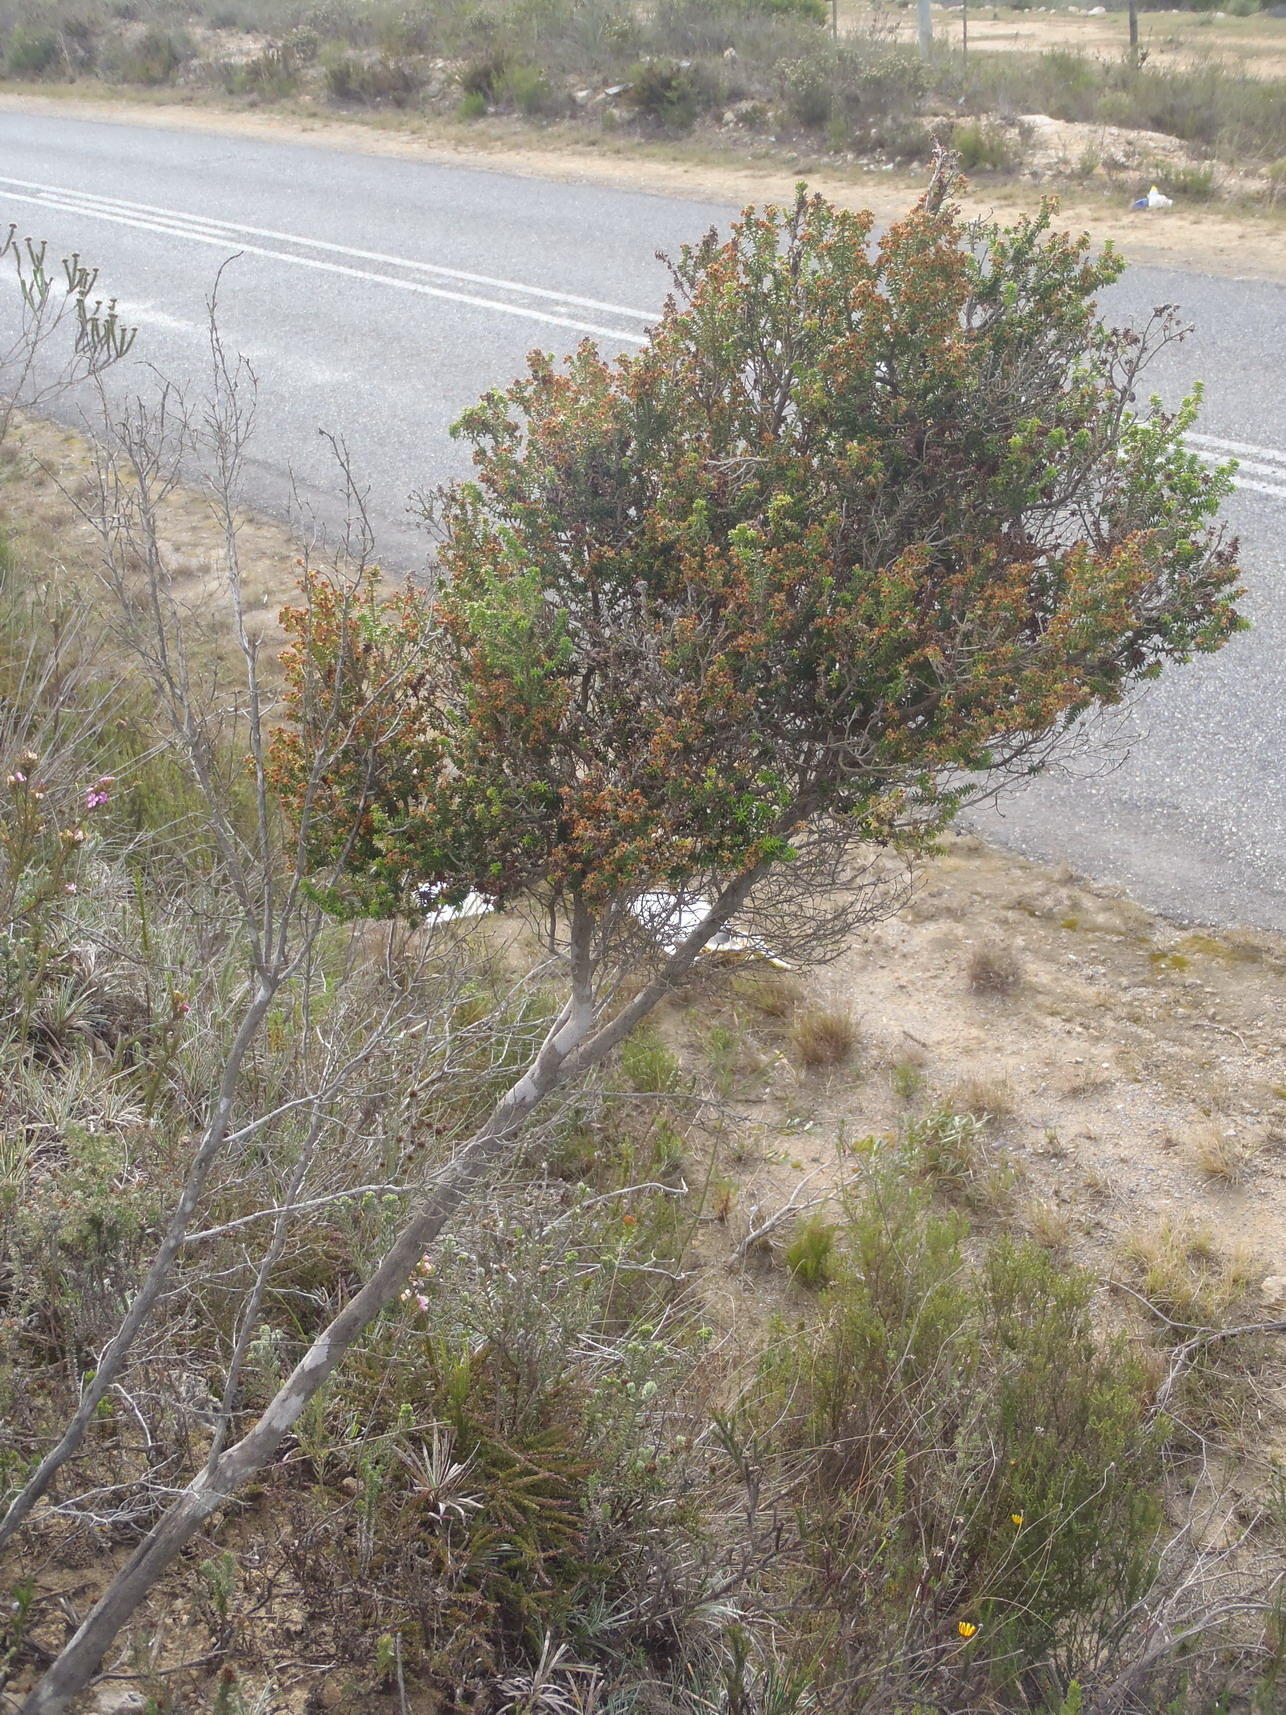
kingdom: Plantae
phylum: Tracheophyta
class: Magnoliopsida
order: Ericales
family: Ericaceae
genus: Erica
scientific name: Erica arenaria
